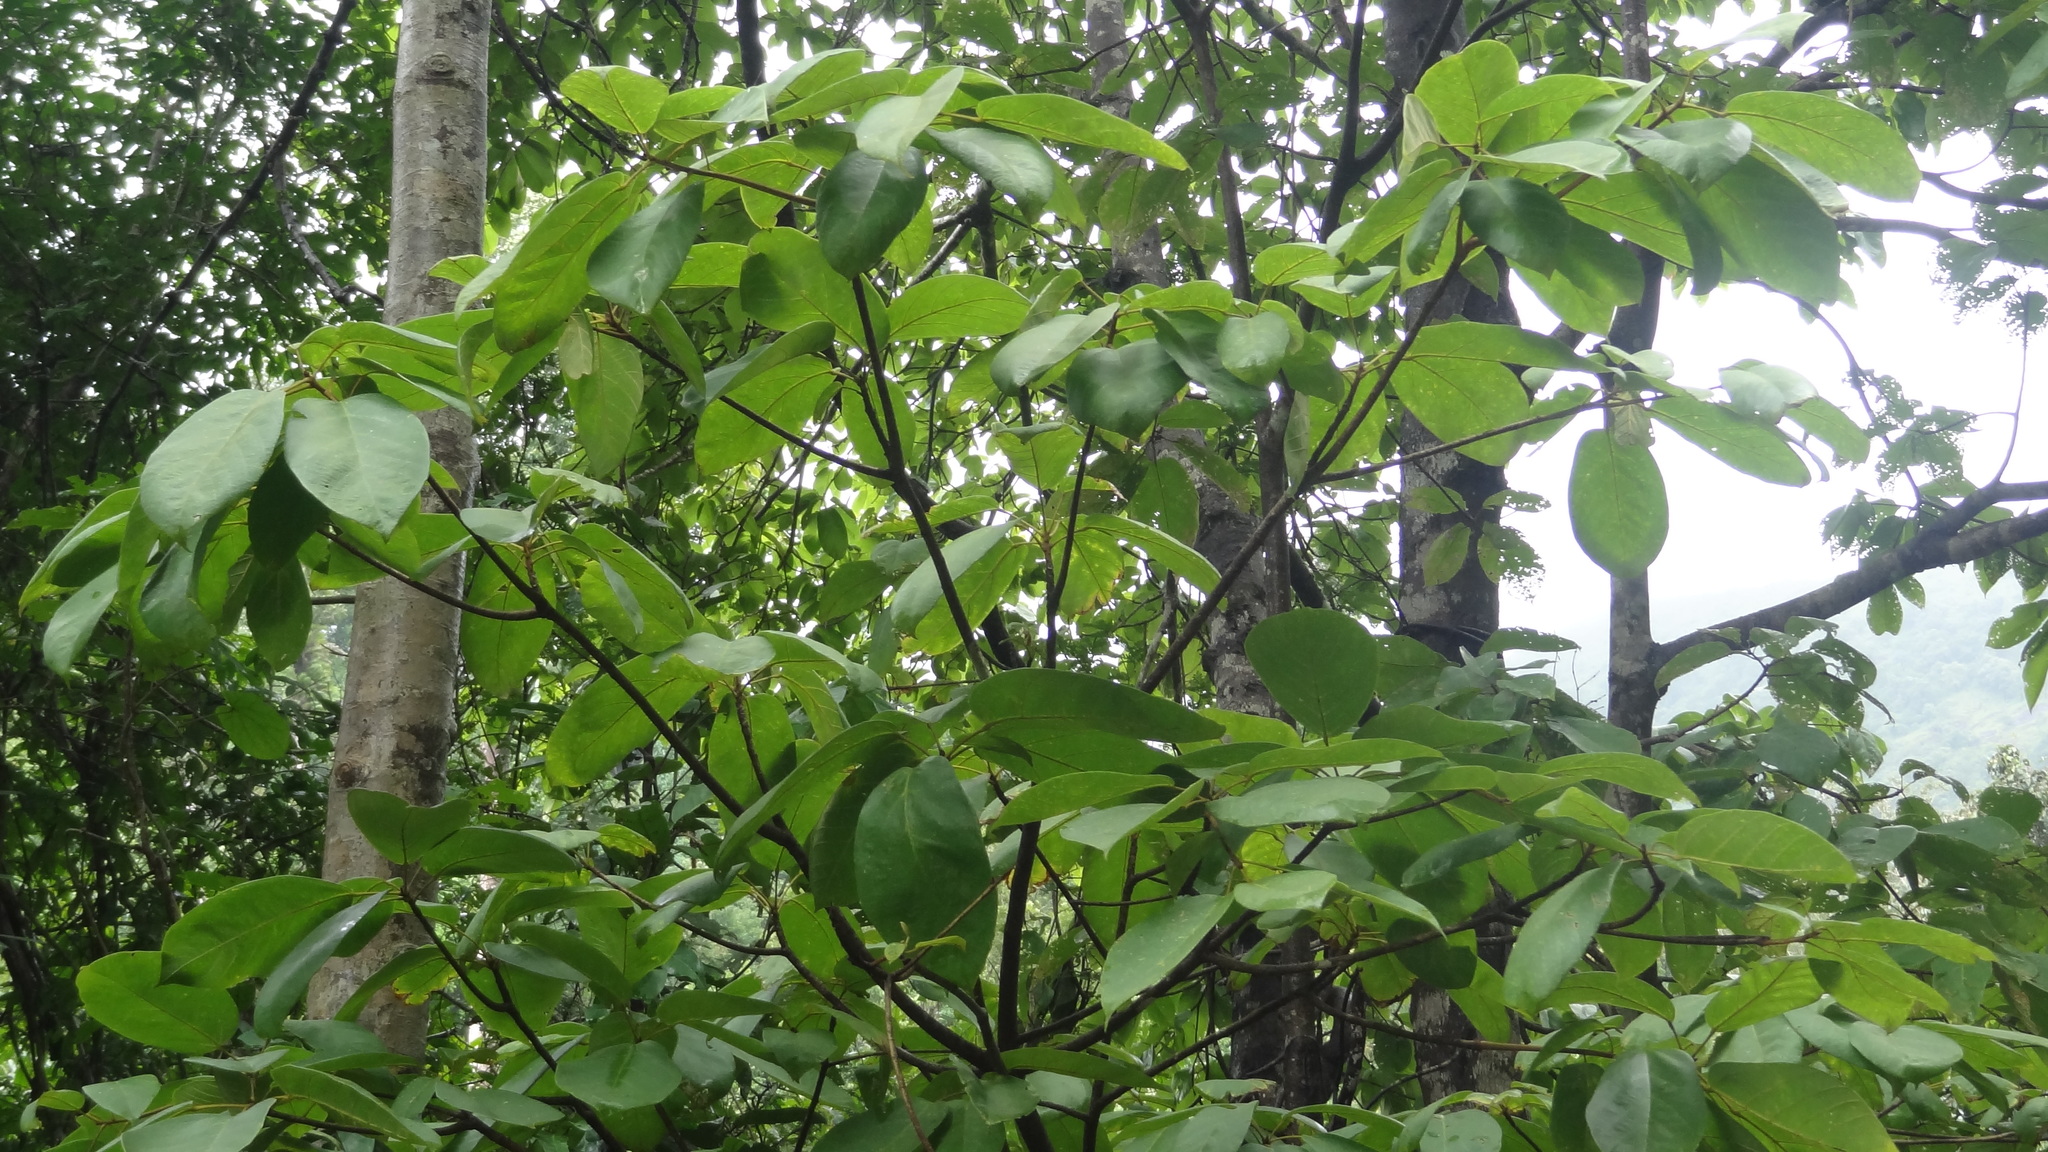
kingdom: Plantae
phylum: Tracheophyta
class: Magnoliopsida
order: Malvales
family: Malvaceae
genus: Sterculia
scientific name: Sterculia guttata
